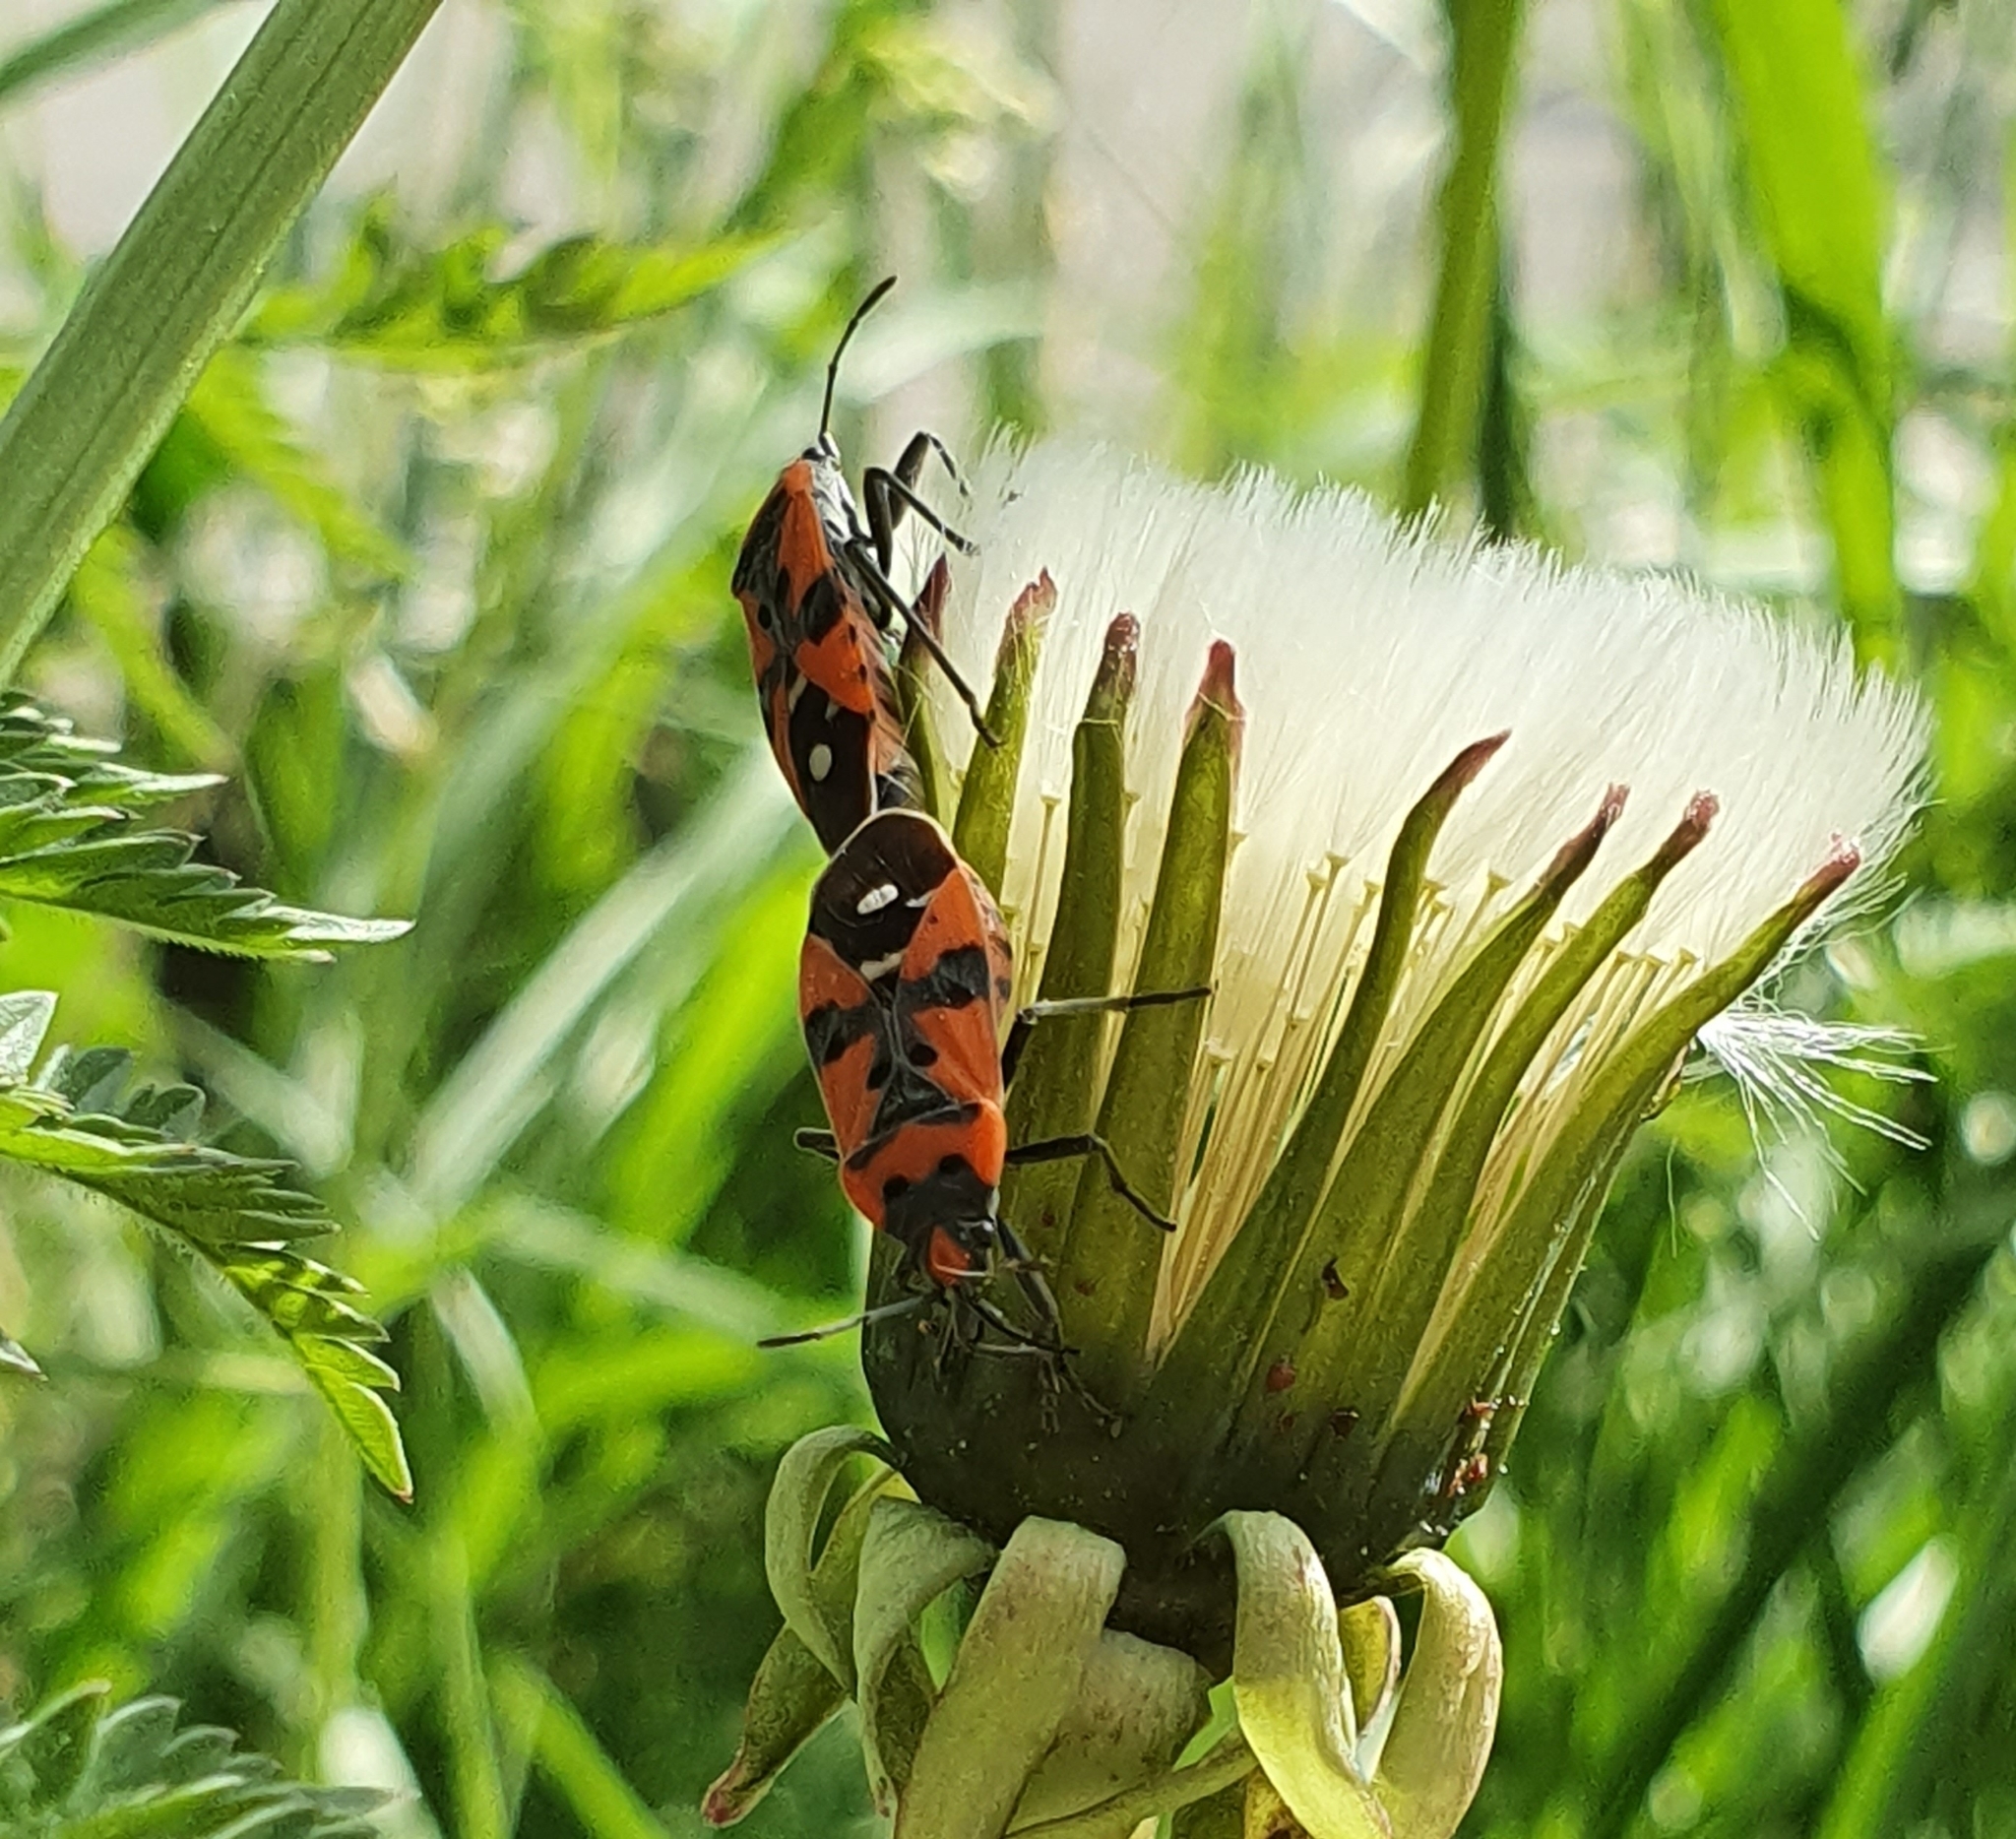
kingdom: Animalia
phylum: Arthropoda
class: Insecta
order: Hemiptera
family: Lygaeidae
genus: Lygaeus
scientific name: Lygaeus equestris
